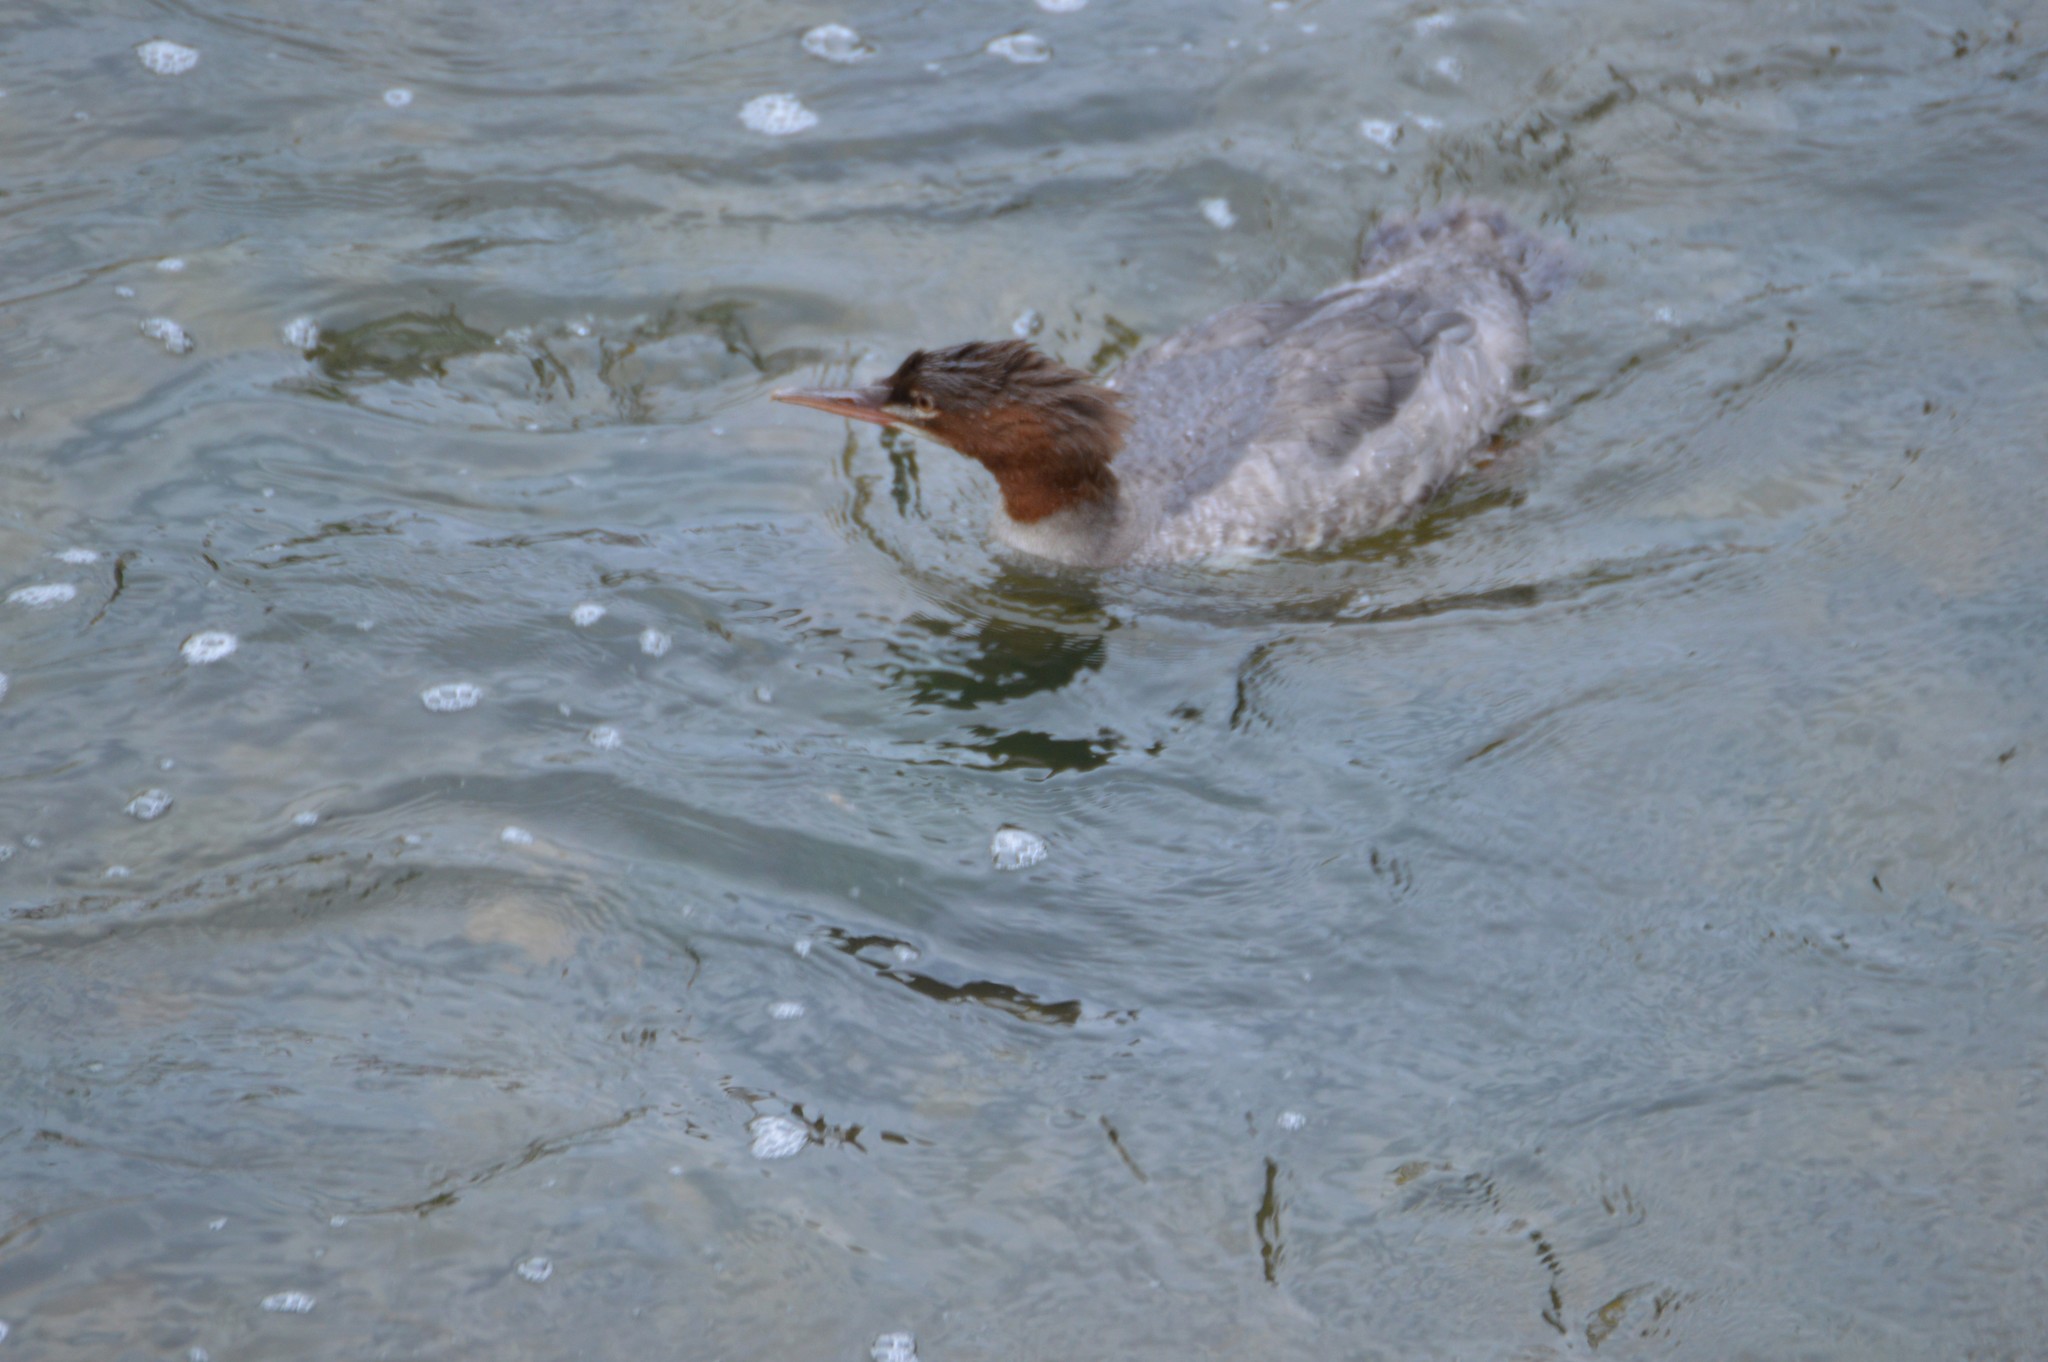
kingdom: Animalia
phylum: Chordata
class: Aves
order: Anseriformes
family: Anatidae
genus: Mergus
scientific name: Mergus merganser
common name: Common merganser
